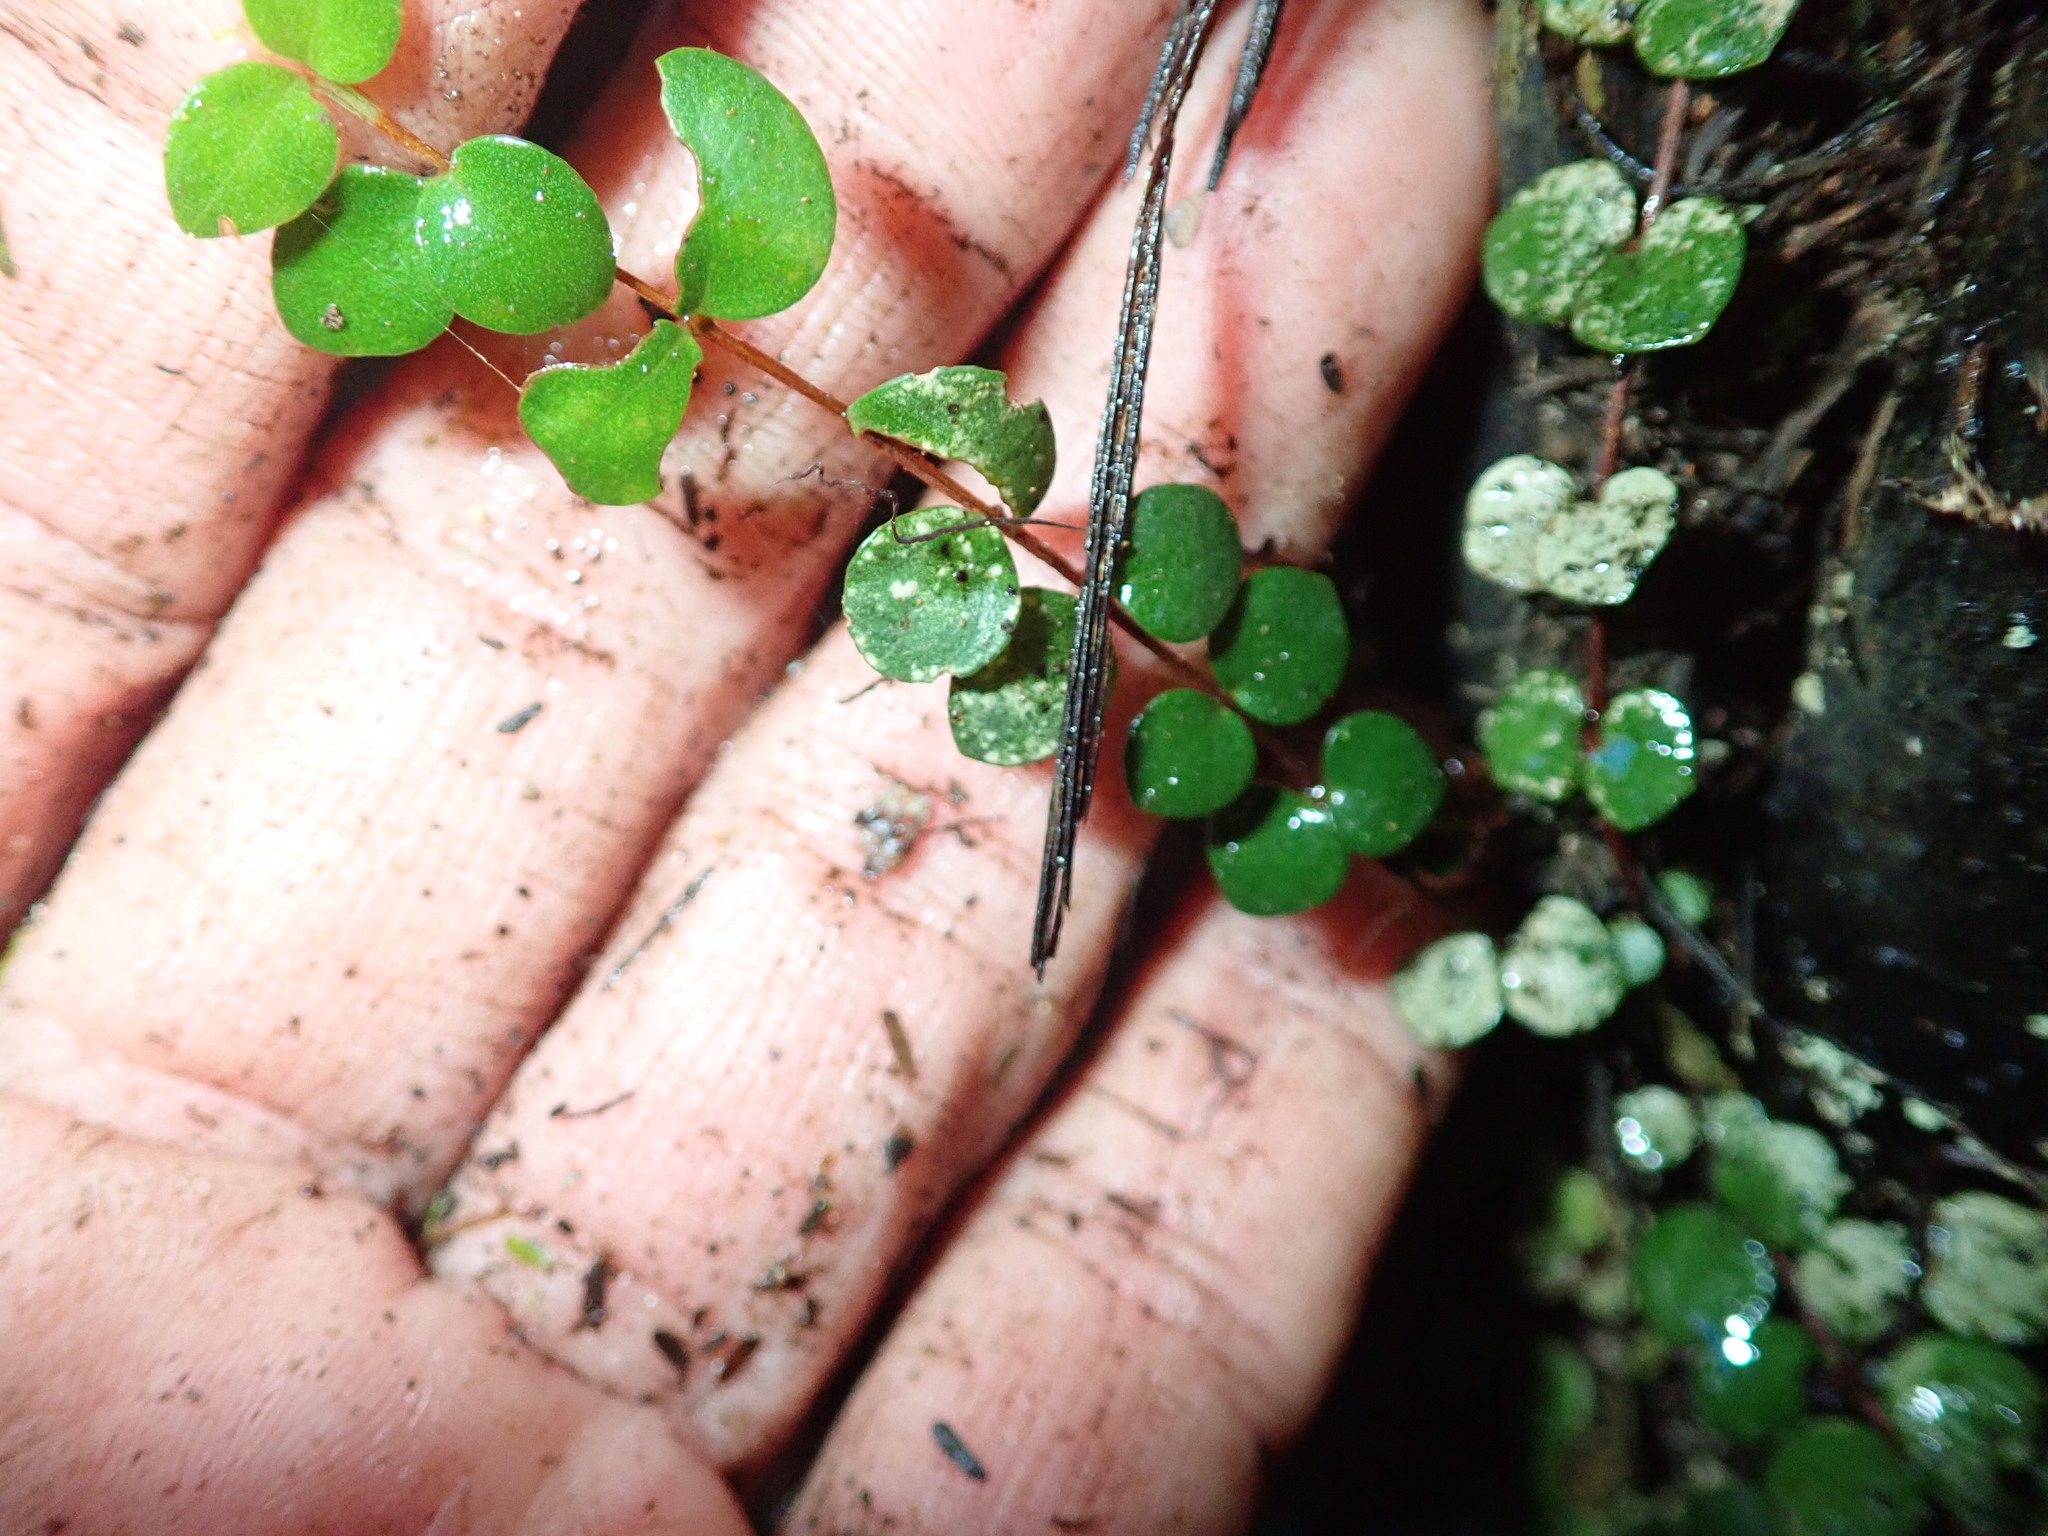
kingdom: Plantae
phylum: Tracheophyta
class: Magnoliopsida
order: Myrtales
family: Myrtaceae
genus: Metrosideros
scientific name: Metrosideros perforata
